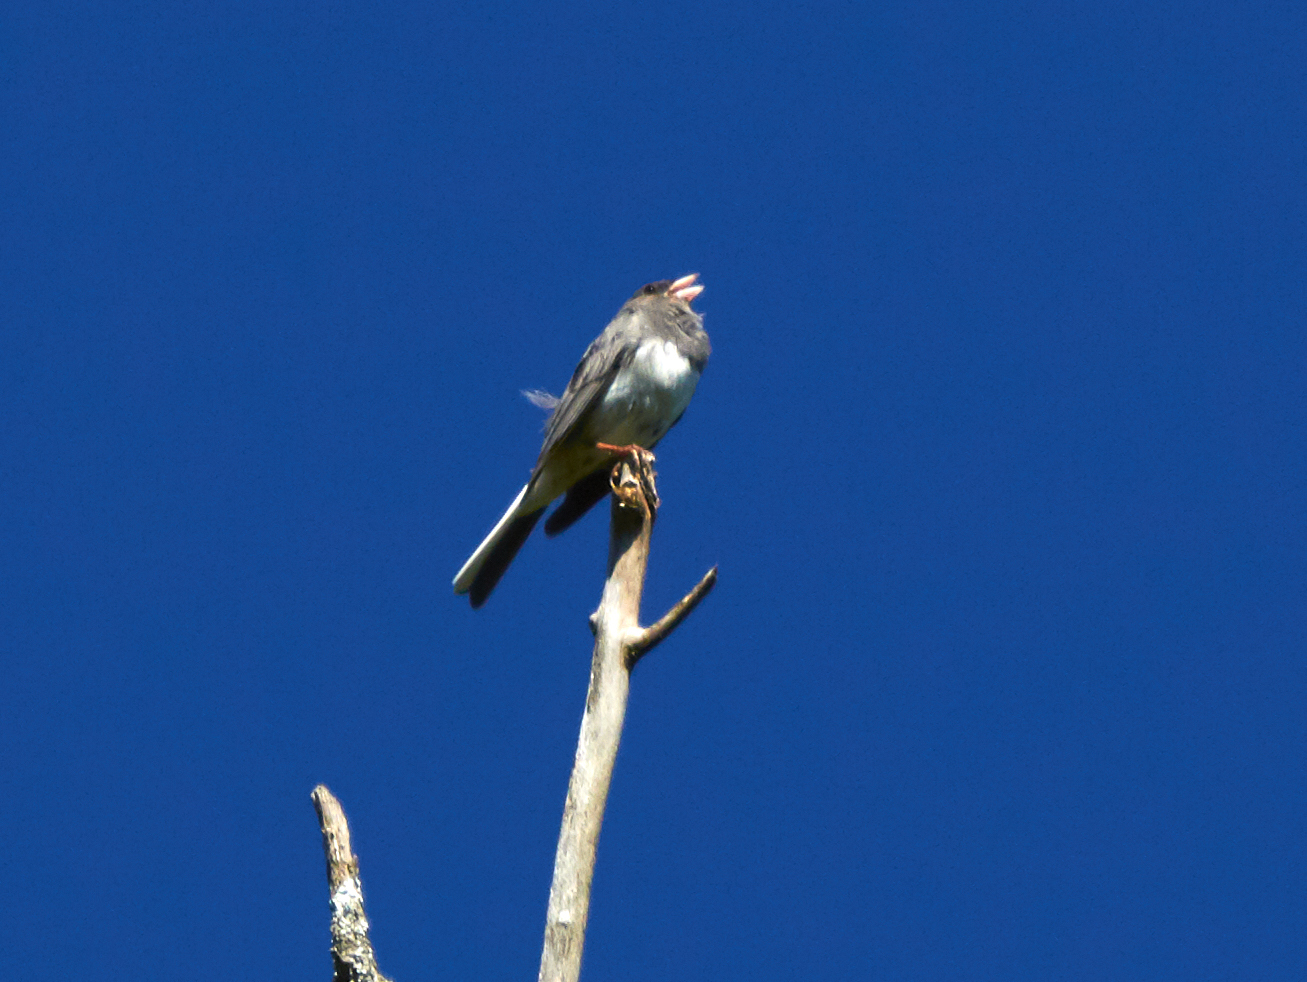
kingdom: Animalia
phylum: Chordata
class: Aves
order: Passeriformes
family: Passerellidae
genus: Junco
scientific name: Junco hyemalis
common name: Dark-eyed junco
